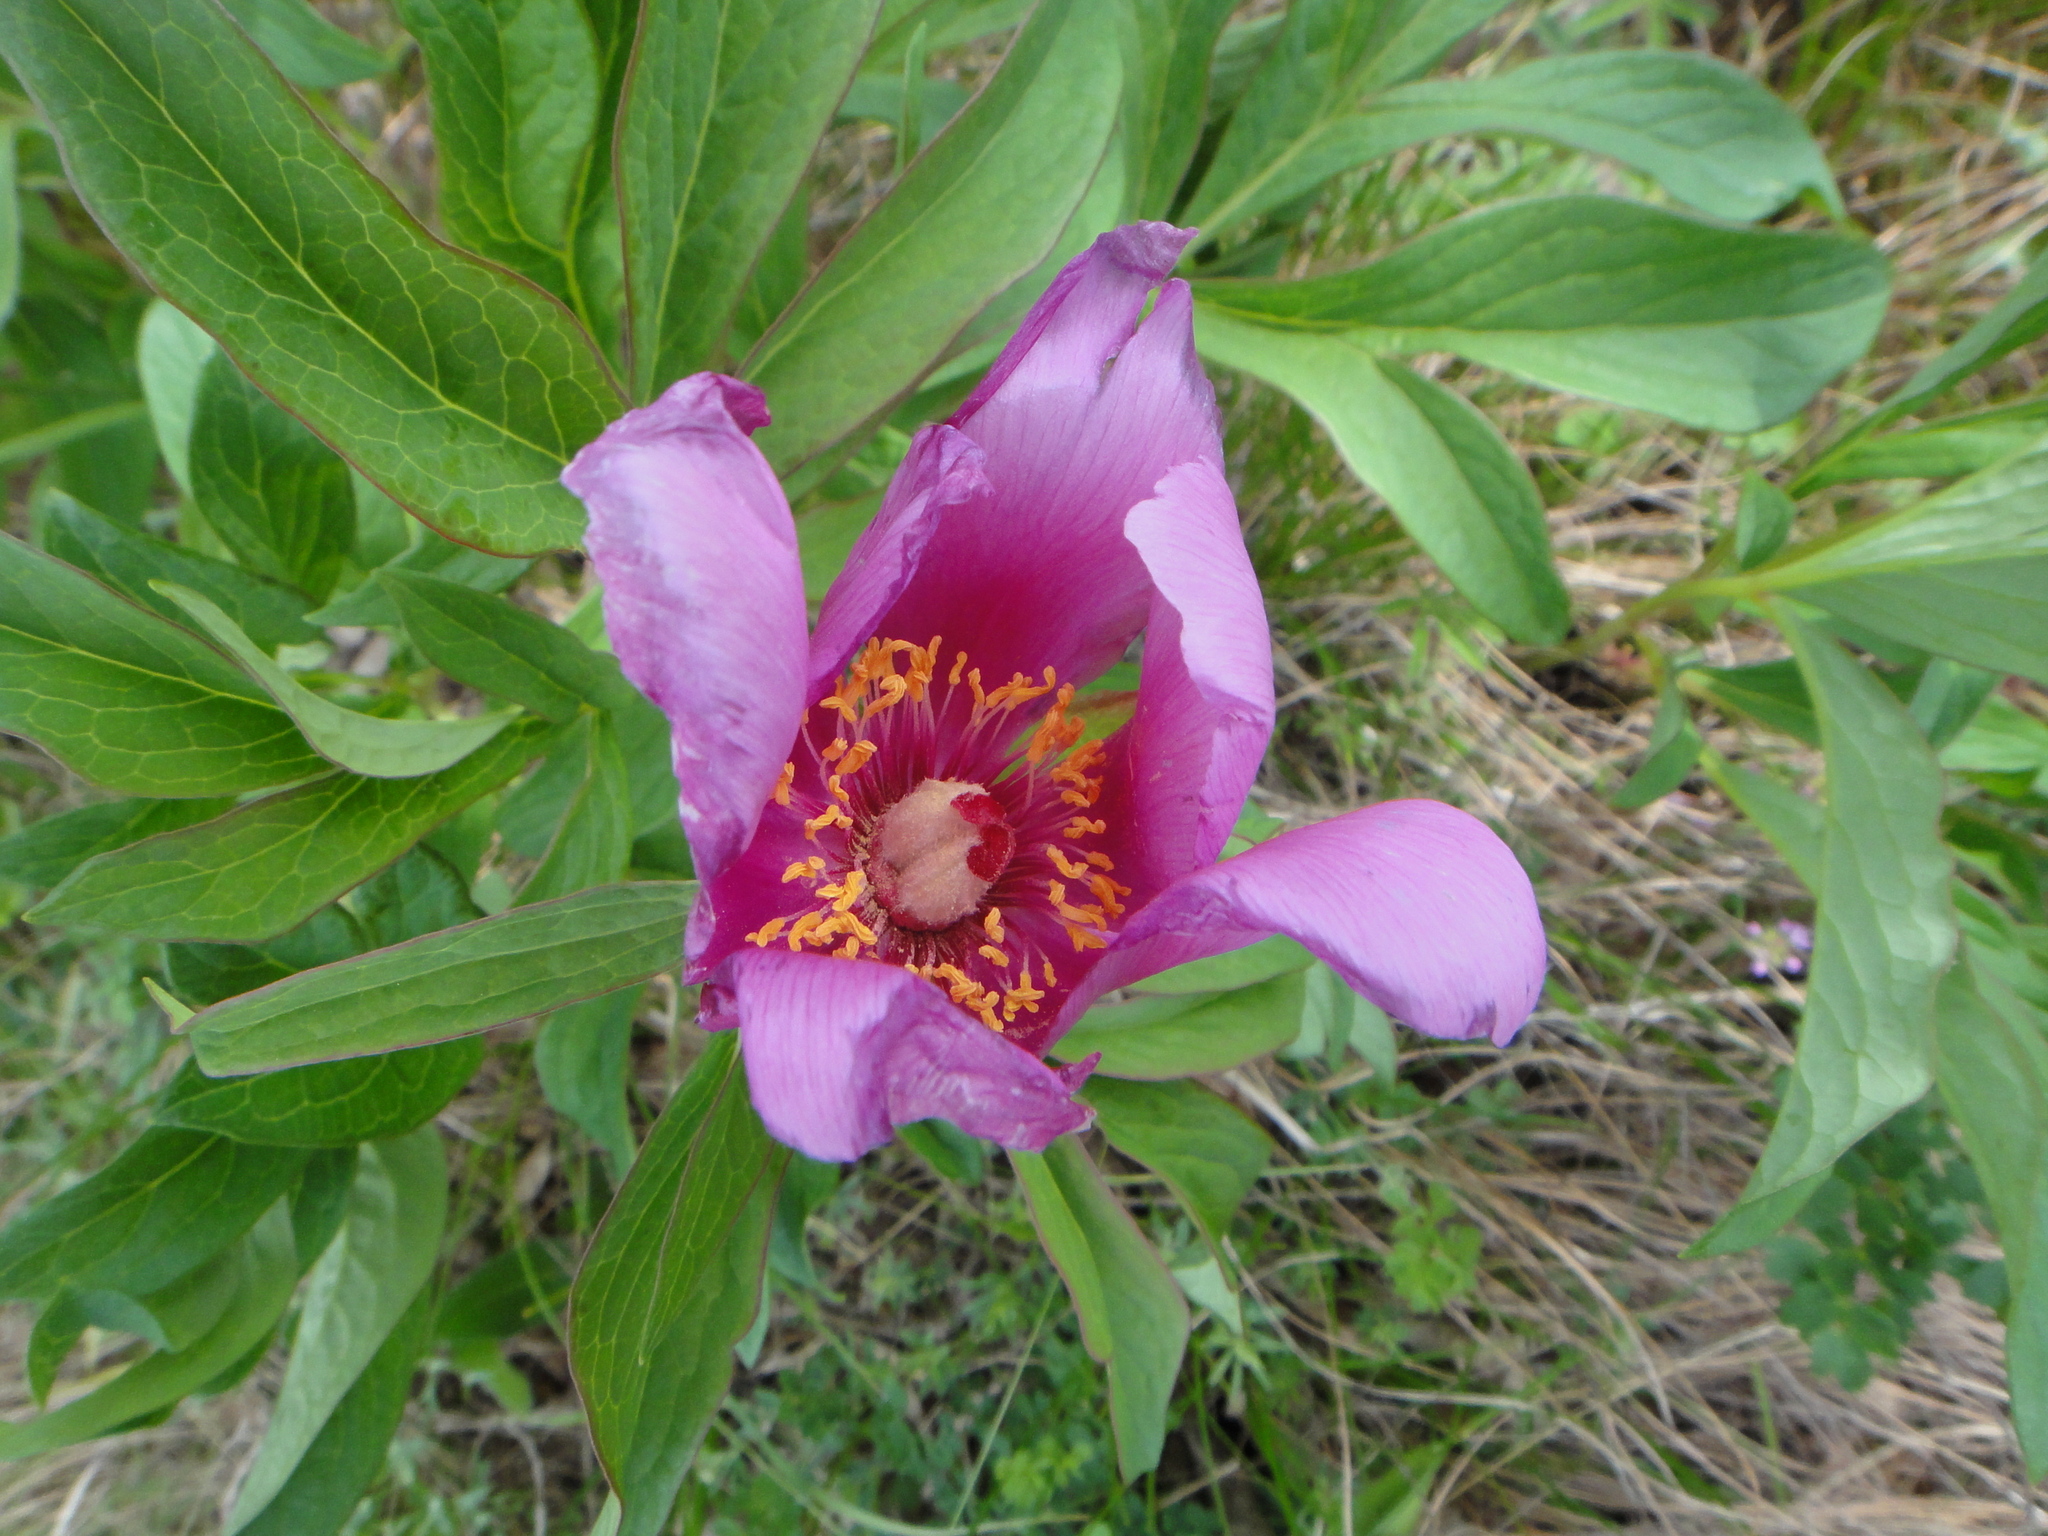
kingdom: Plantae
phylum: Tracheophyta
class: Magnoliopsida
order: Saxifragales
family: Paeoniaceae
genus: Paeonia
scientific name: Paeonia officinalis
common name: Common peony
